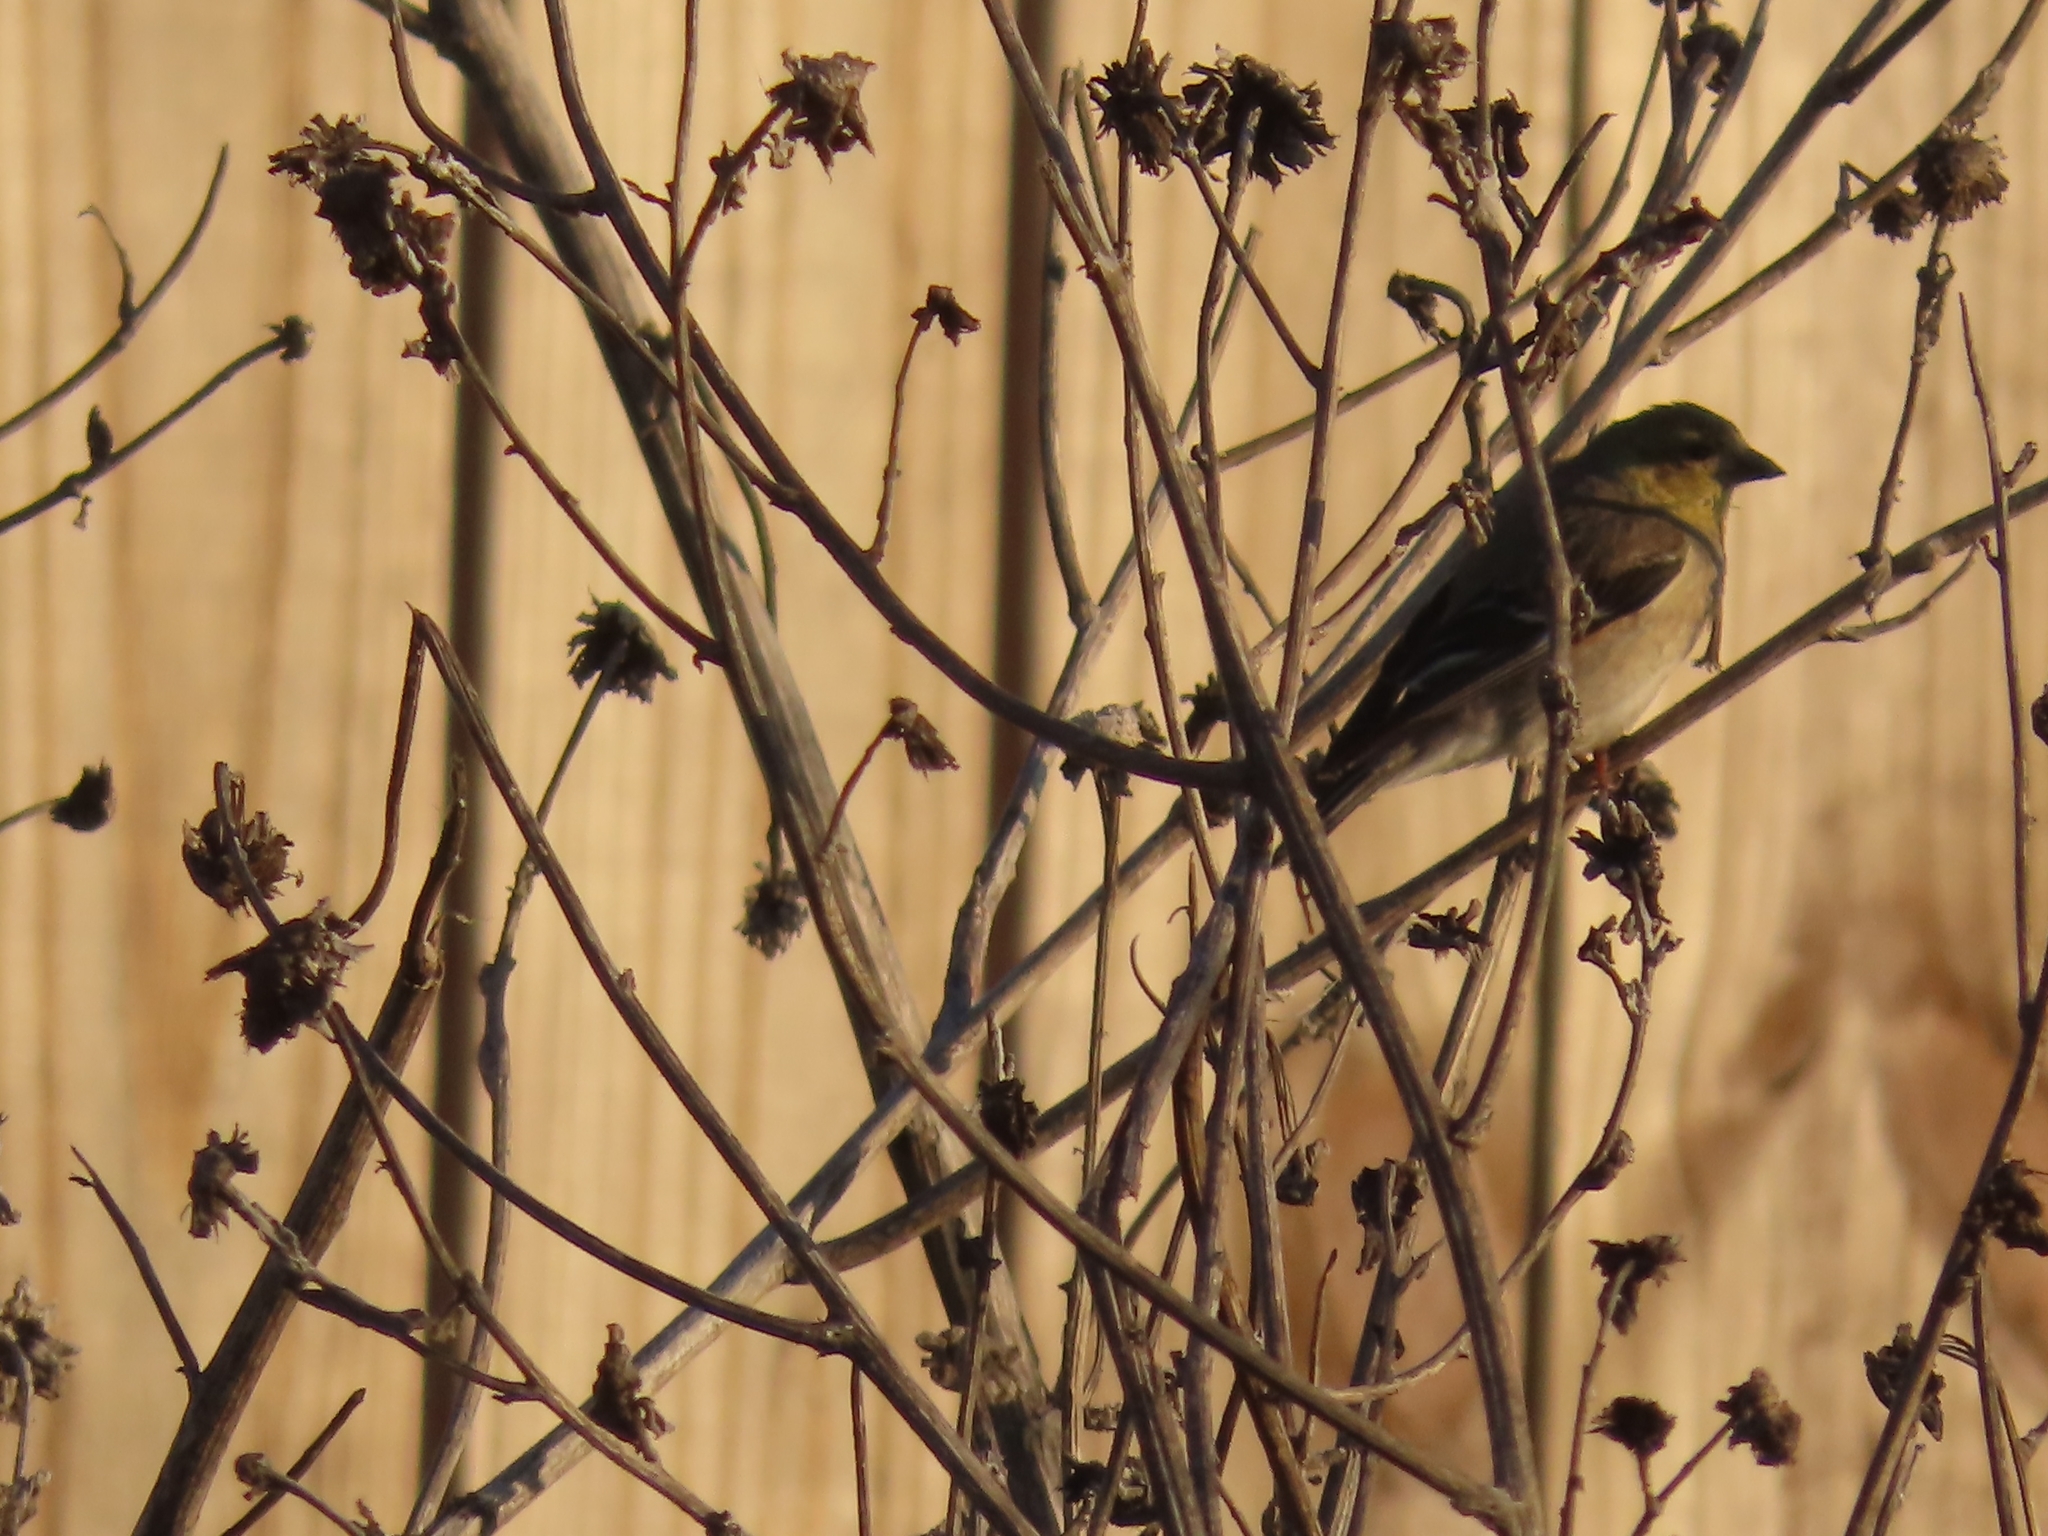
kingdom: Animalia
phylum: Chordata
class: Aves
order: Passeriformes
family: Fringillidae
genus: Spinus
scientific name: Spinus tristis
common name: American goldfinch
